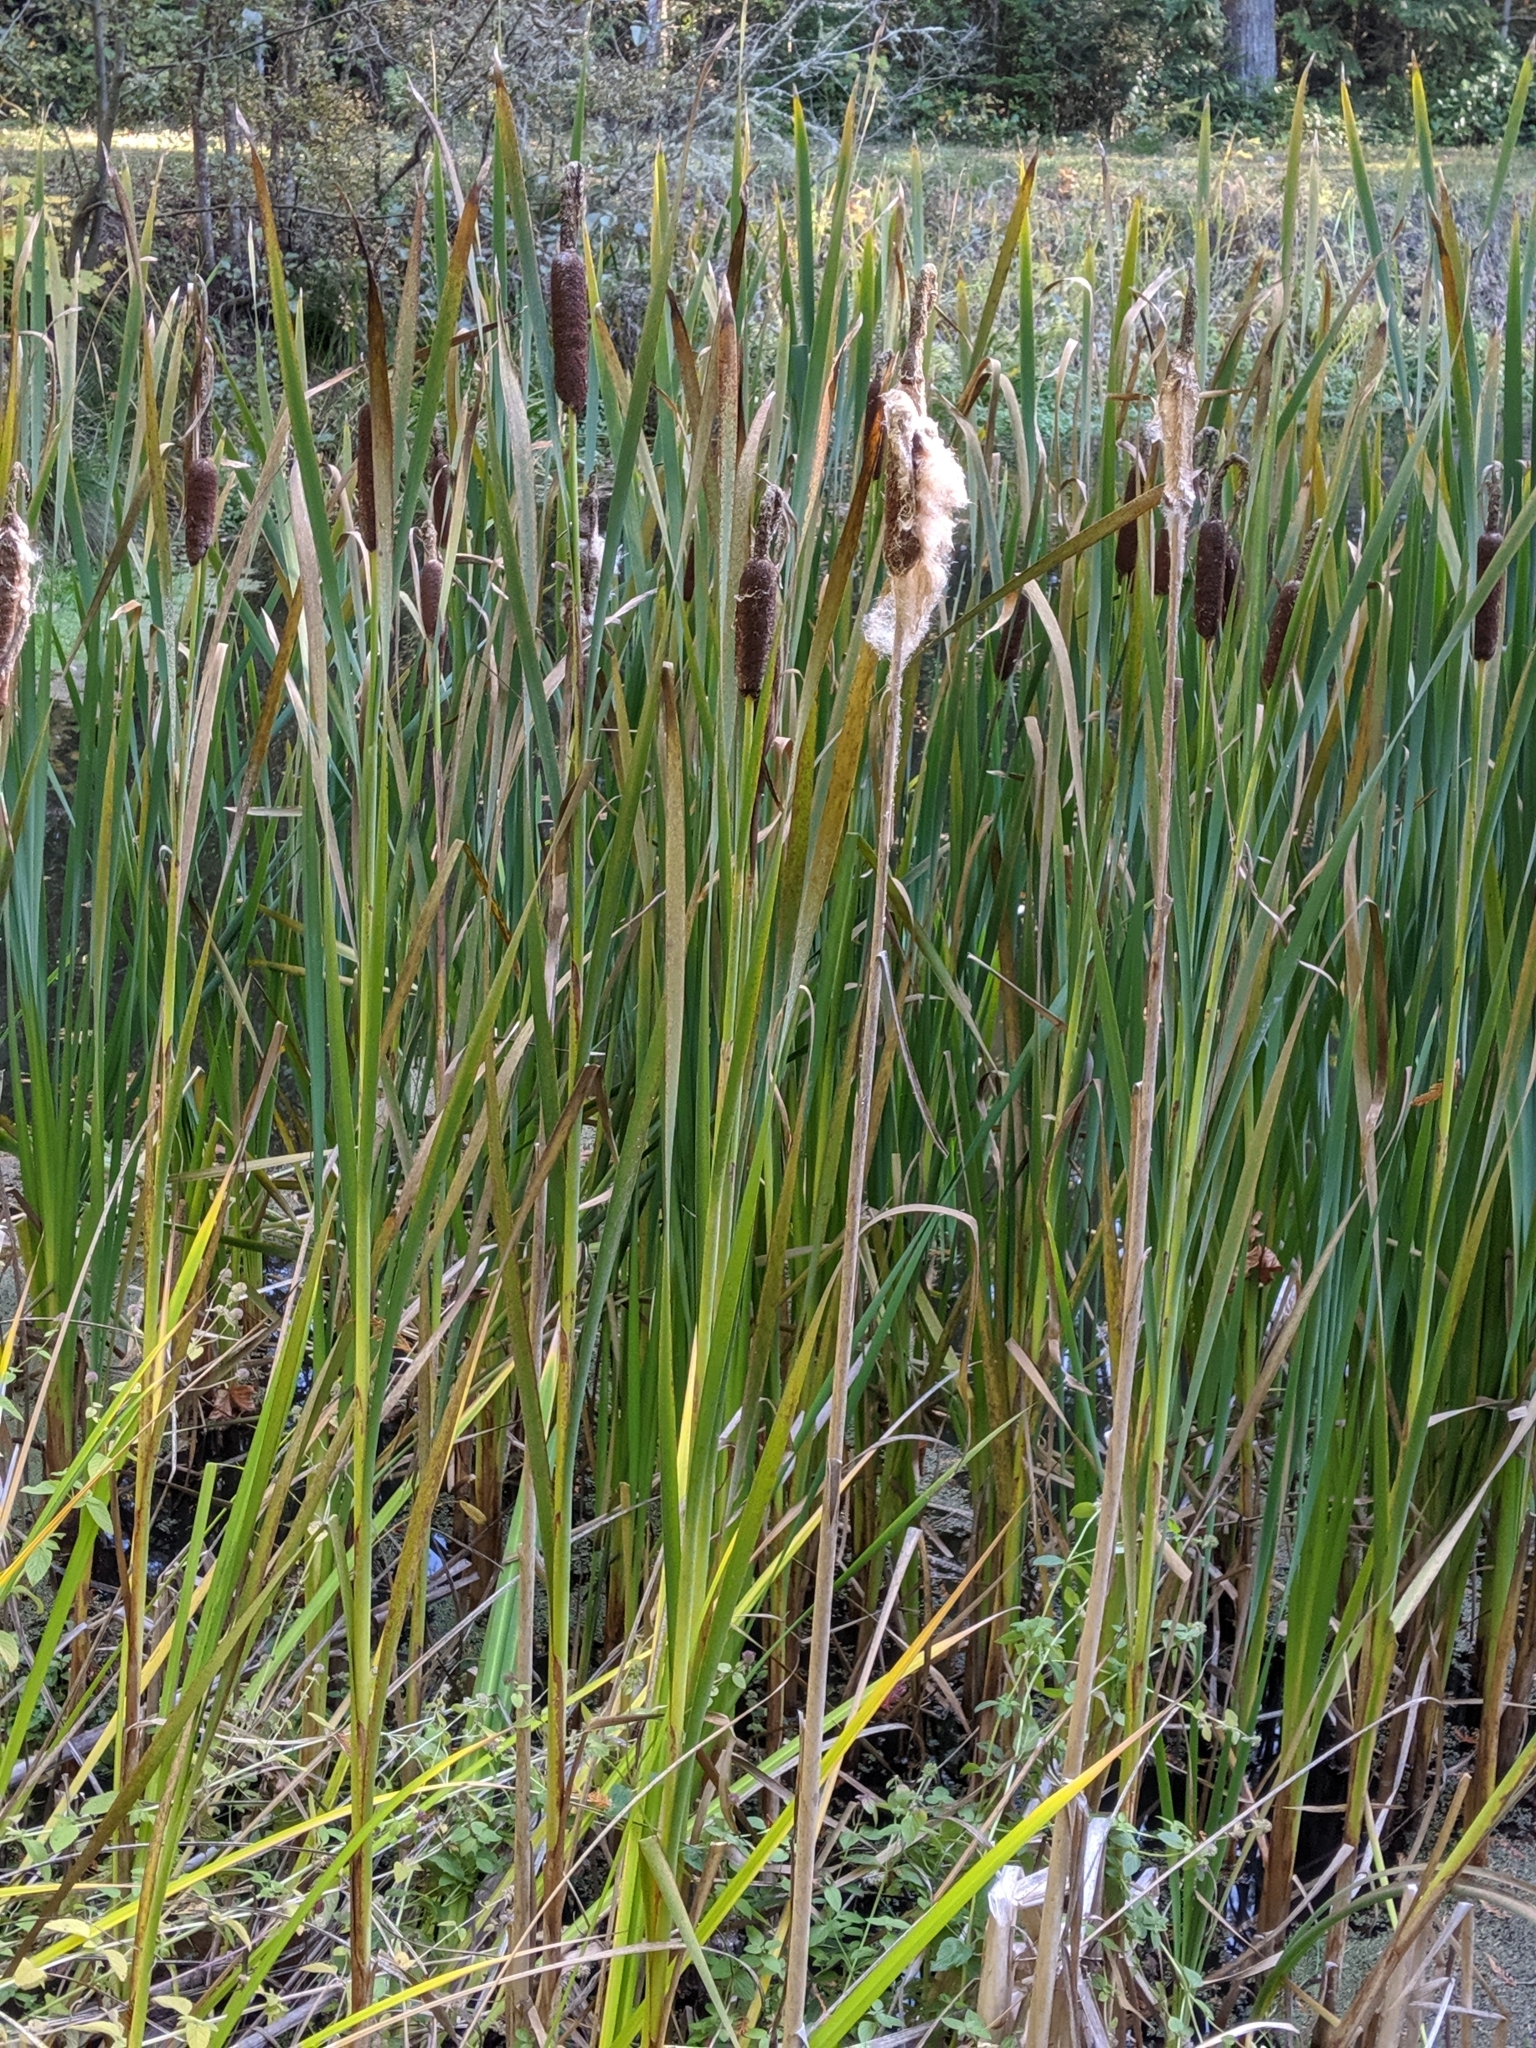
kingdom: Plantae
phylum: Tracheophyta
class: Liliopsida
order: Poales
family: Typhaceae
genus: Typha
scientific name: Typha latifolia
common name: Broadleaf cattail
